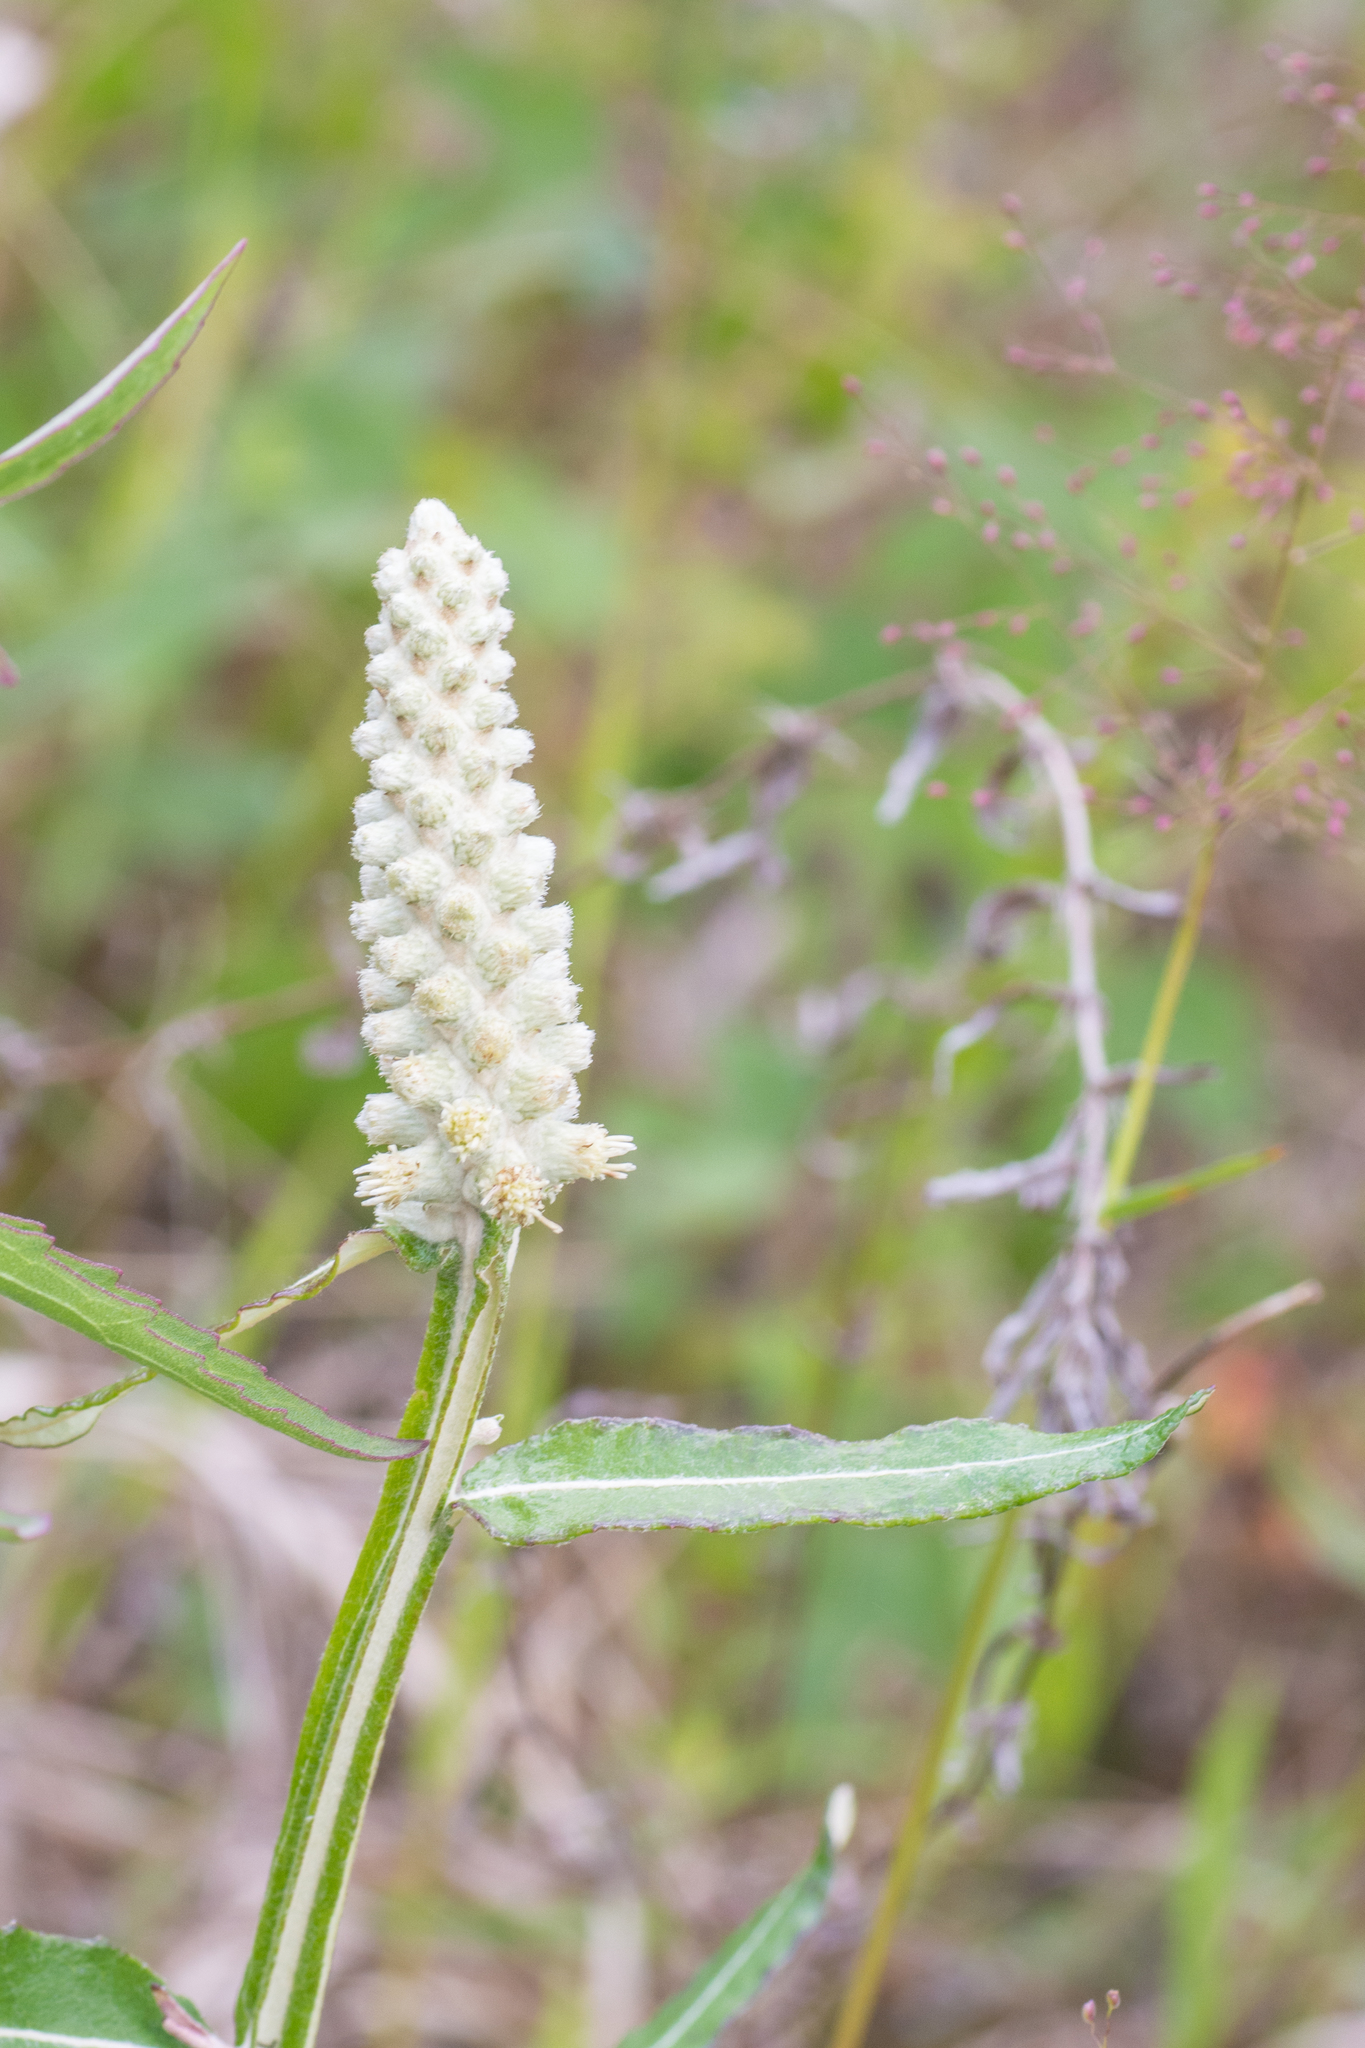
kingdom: Plantae
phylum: Tracheophyta
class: Magnoliopsida
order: Asterales
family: Asteraceae
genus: Pterocaulon
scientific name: Pterocaulon pycnostachyum
